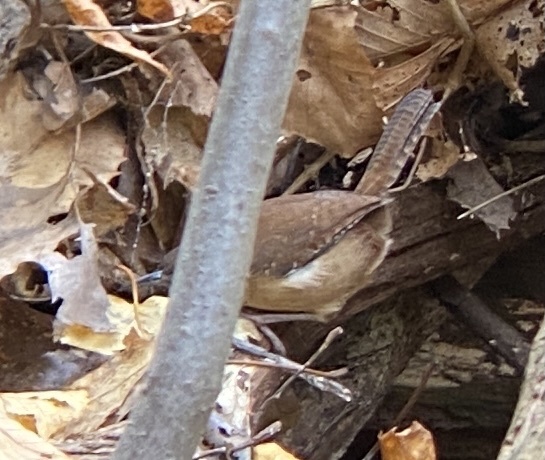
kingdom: Animalia
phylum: Chordata
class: Aves
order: Passeriformes
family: Troglodytidae
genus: Thryothorus
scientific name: Thryothorus ludovicianus
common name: Carolina wren
